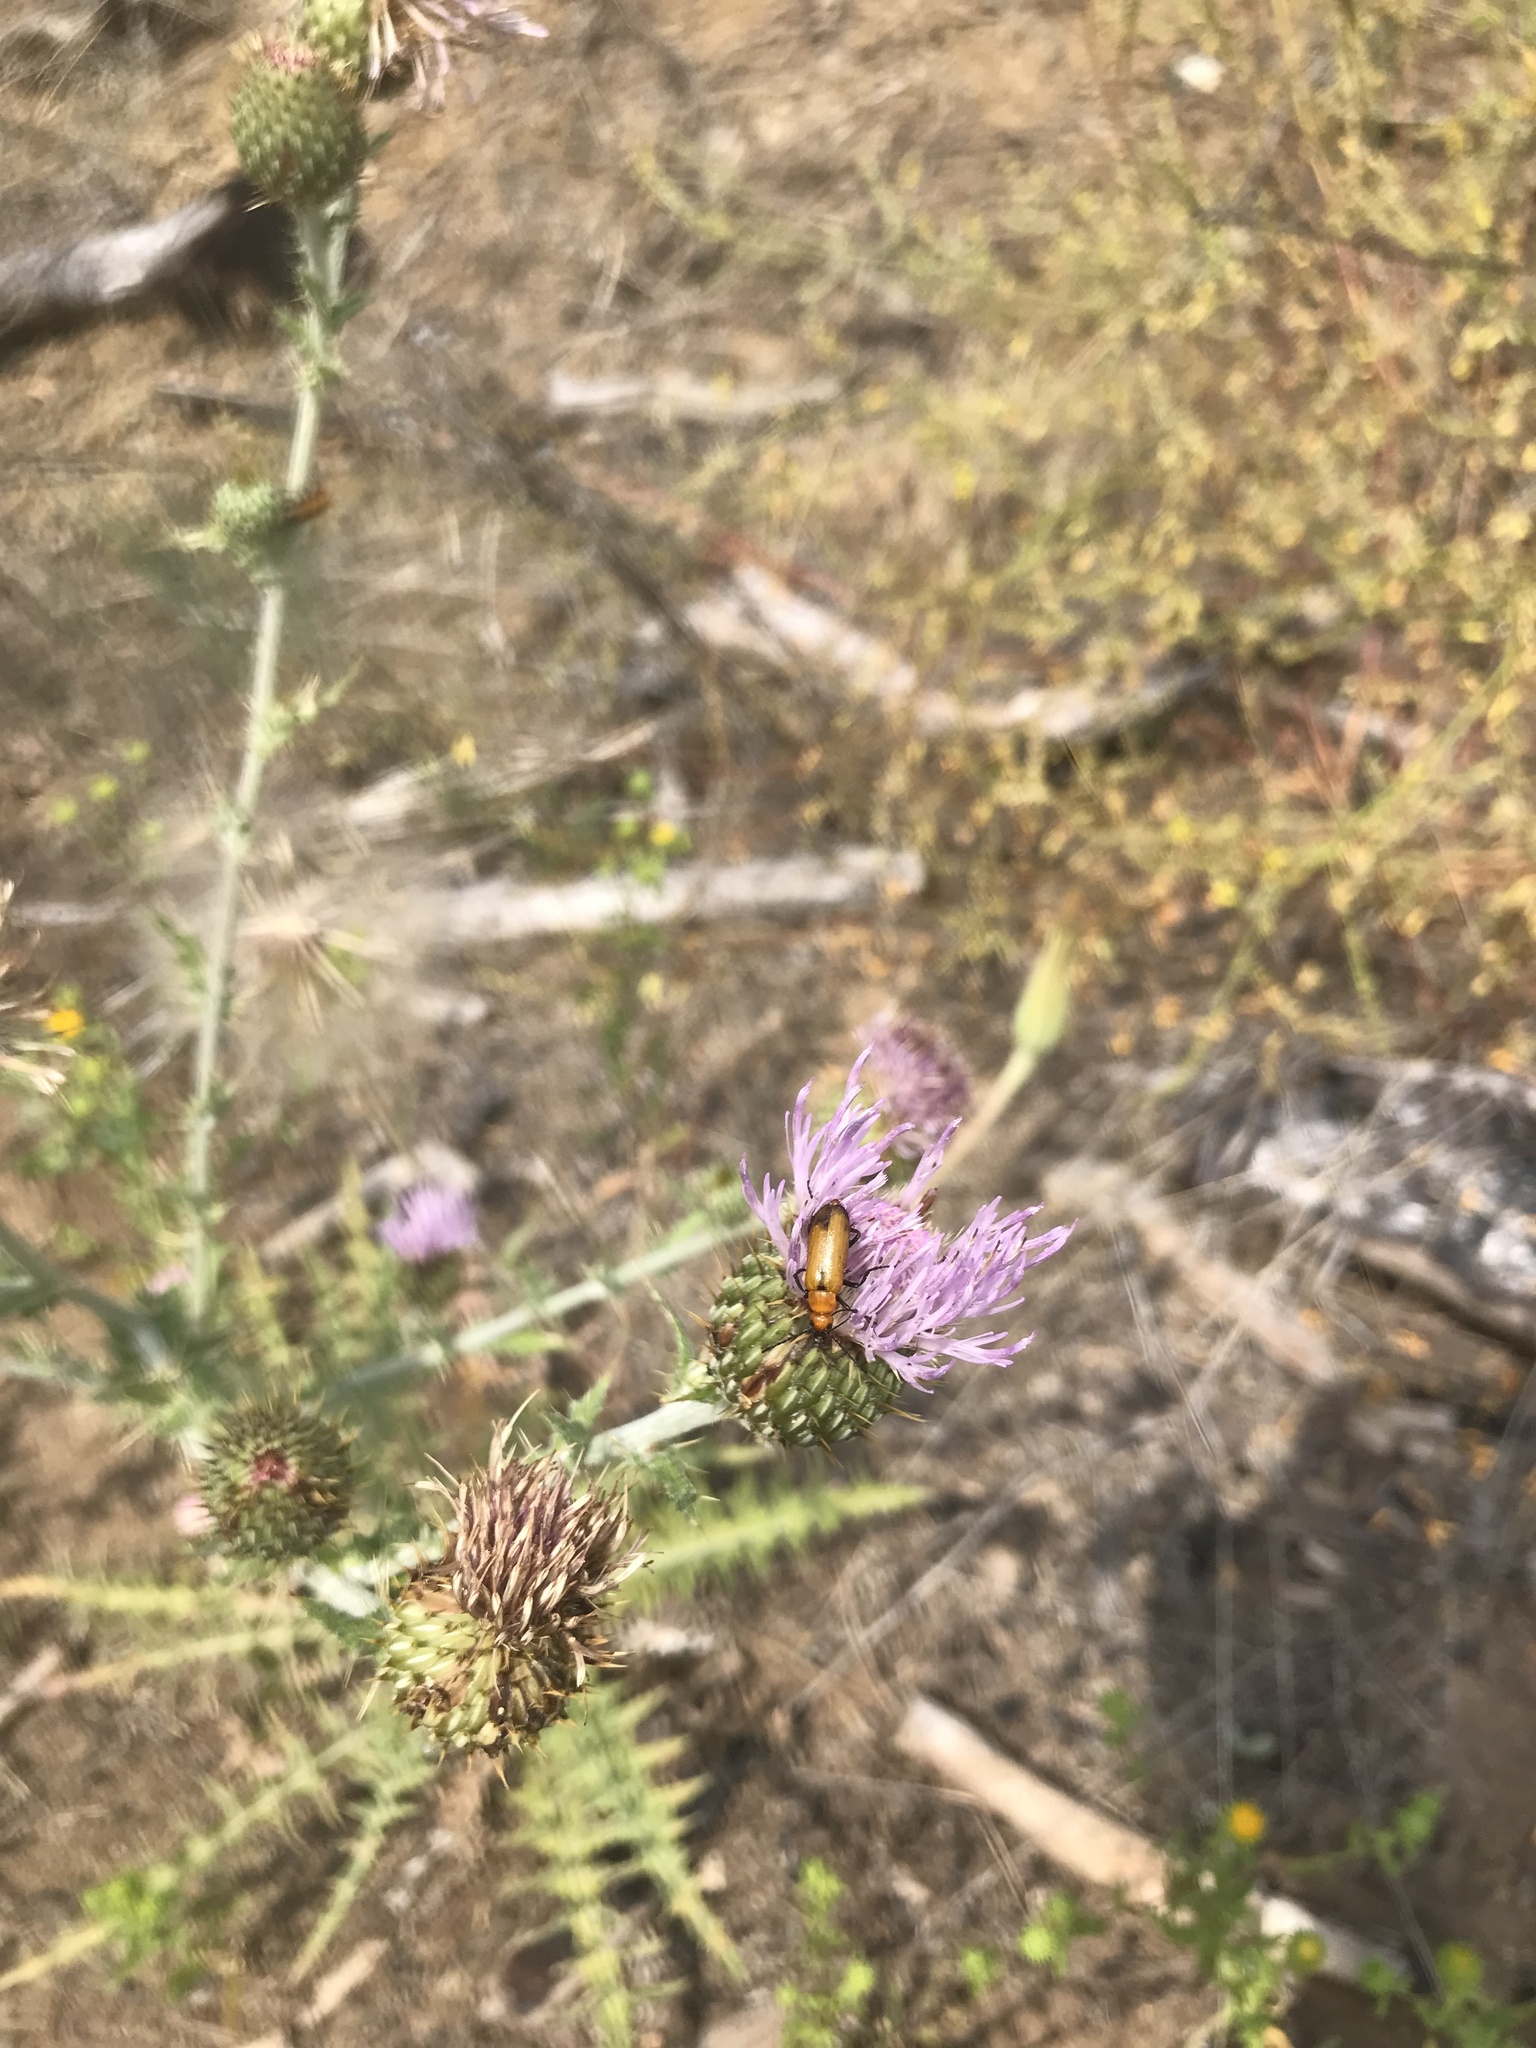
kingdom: Animalia
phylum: Arthropoda
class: Insecta
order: Coleoptera
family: Meloidae
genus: Nemognatha
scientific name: Nemognatha lutea
